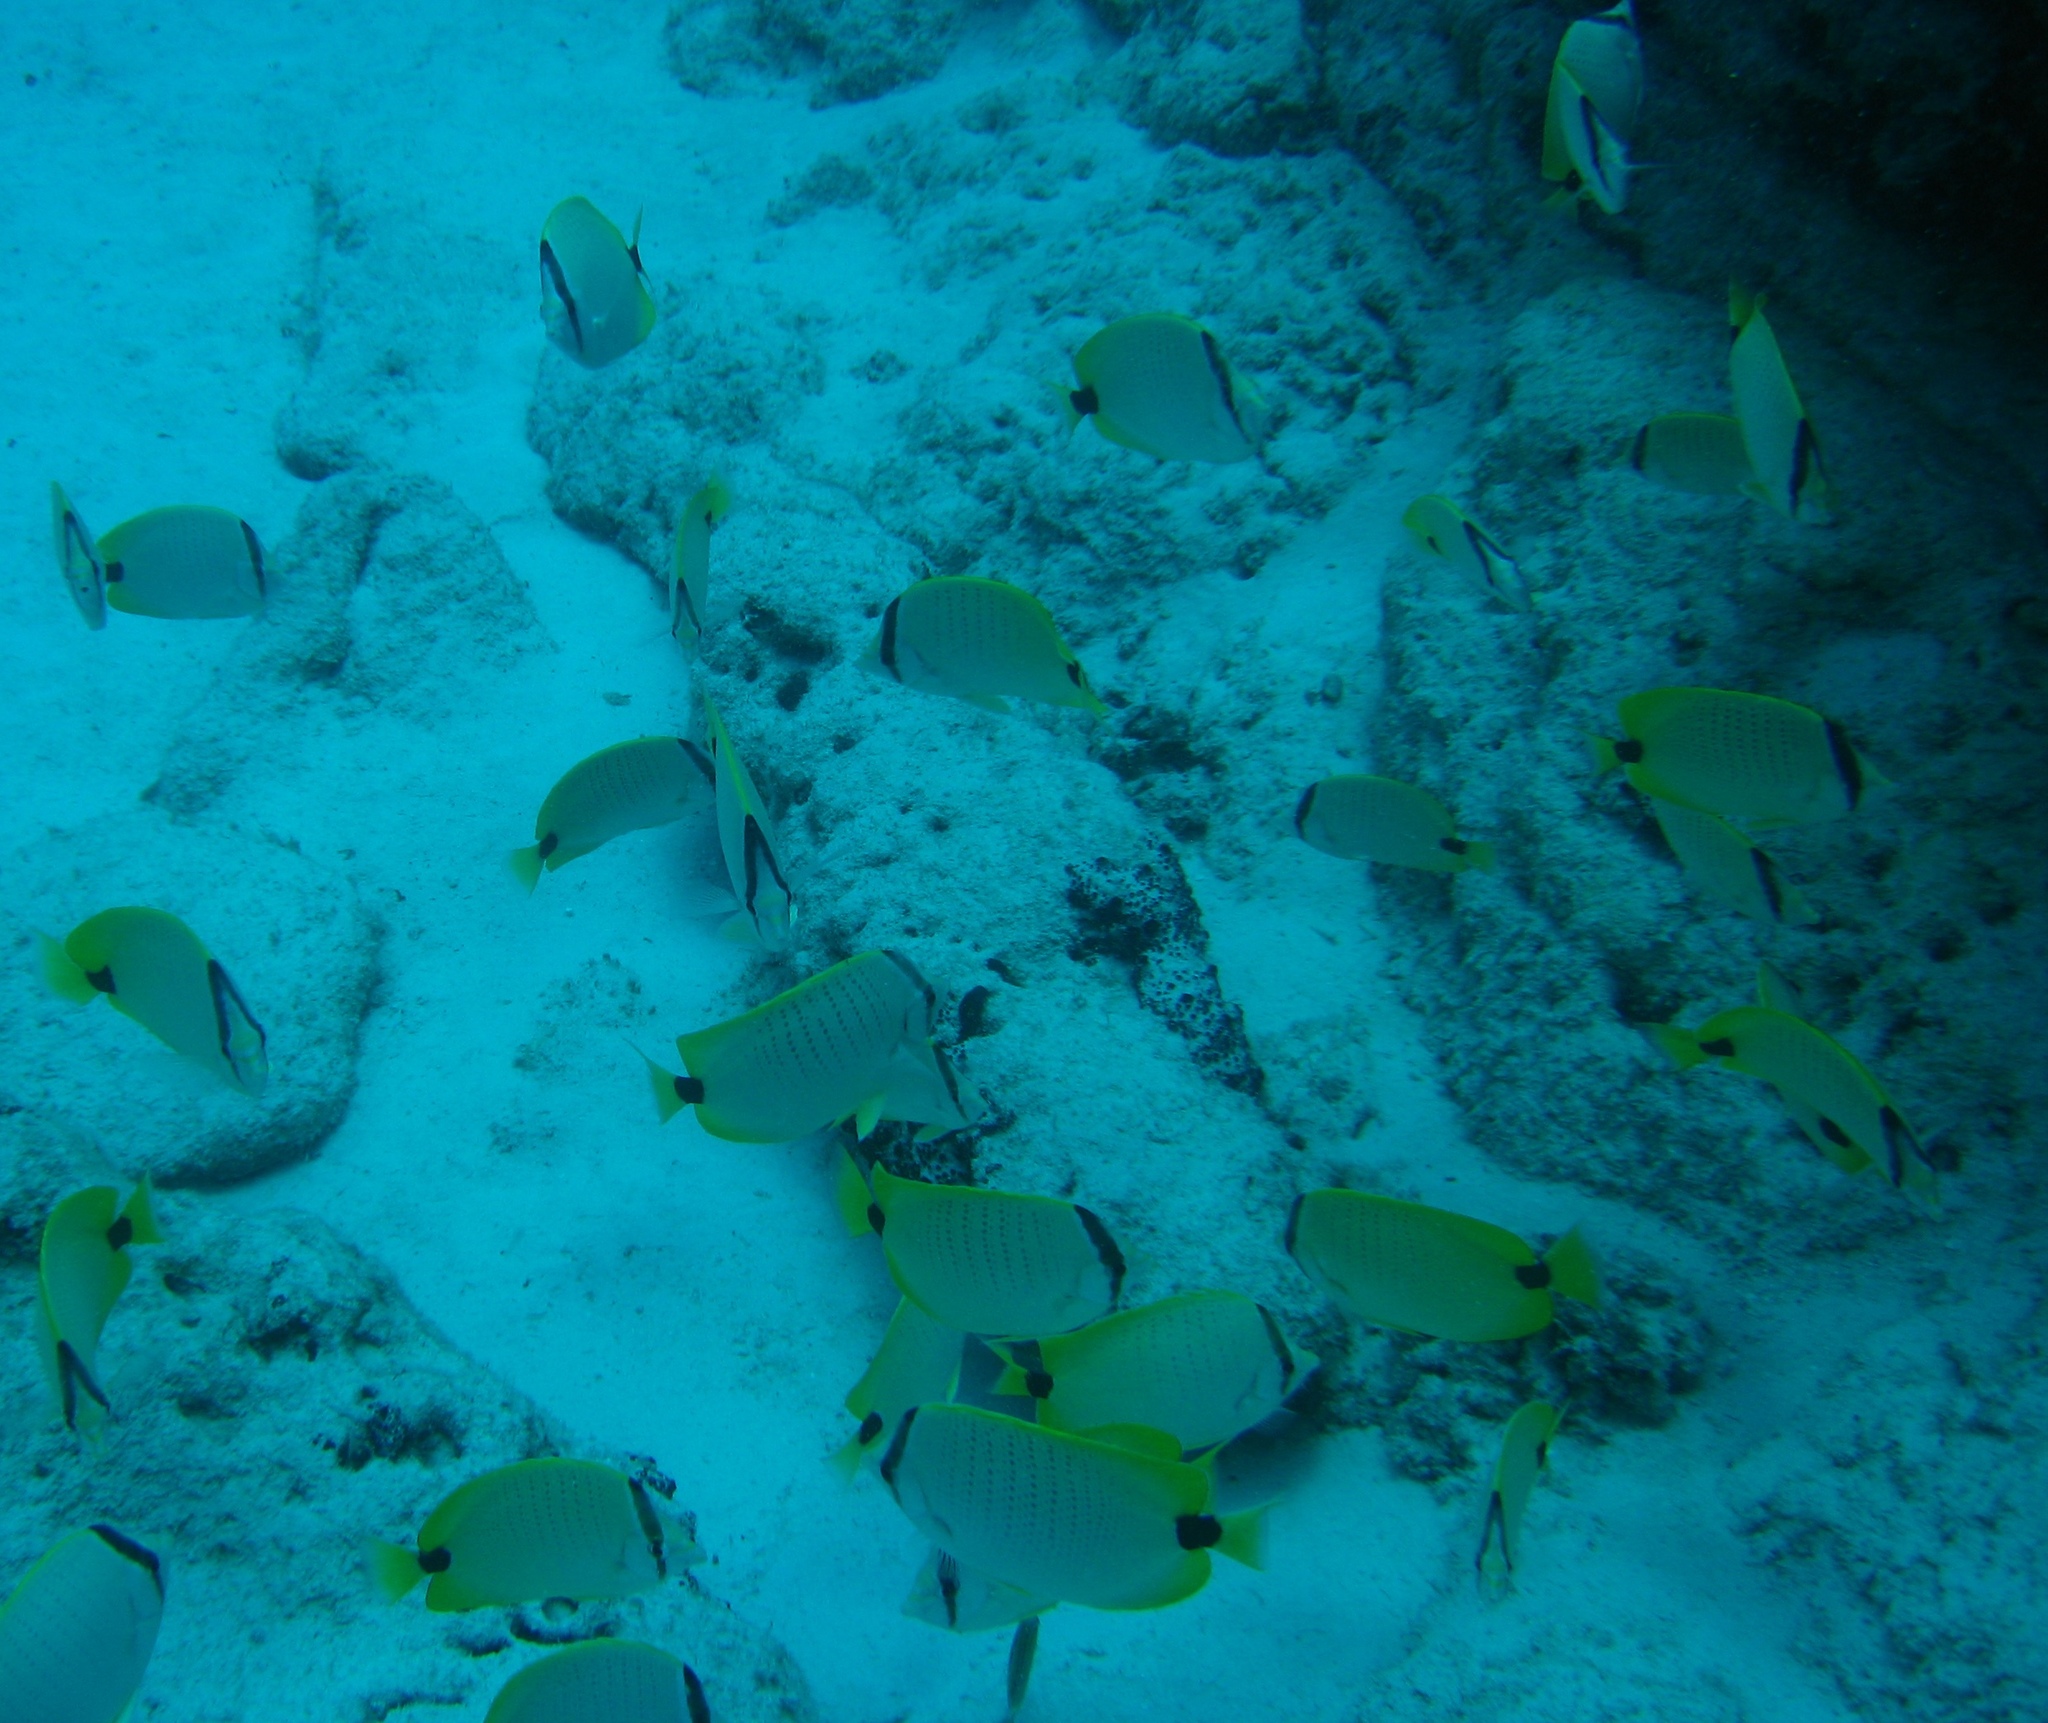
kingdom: Animalia
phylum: Chordata
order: Perciformes
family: Chaetodontidae
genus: Chaetodon
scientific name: Chaetodon miliaris
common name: Lemon butterflyfish
